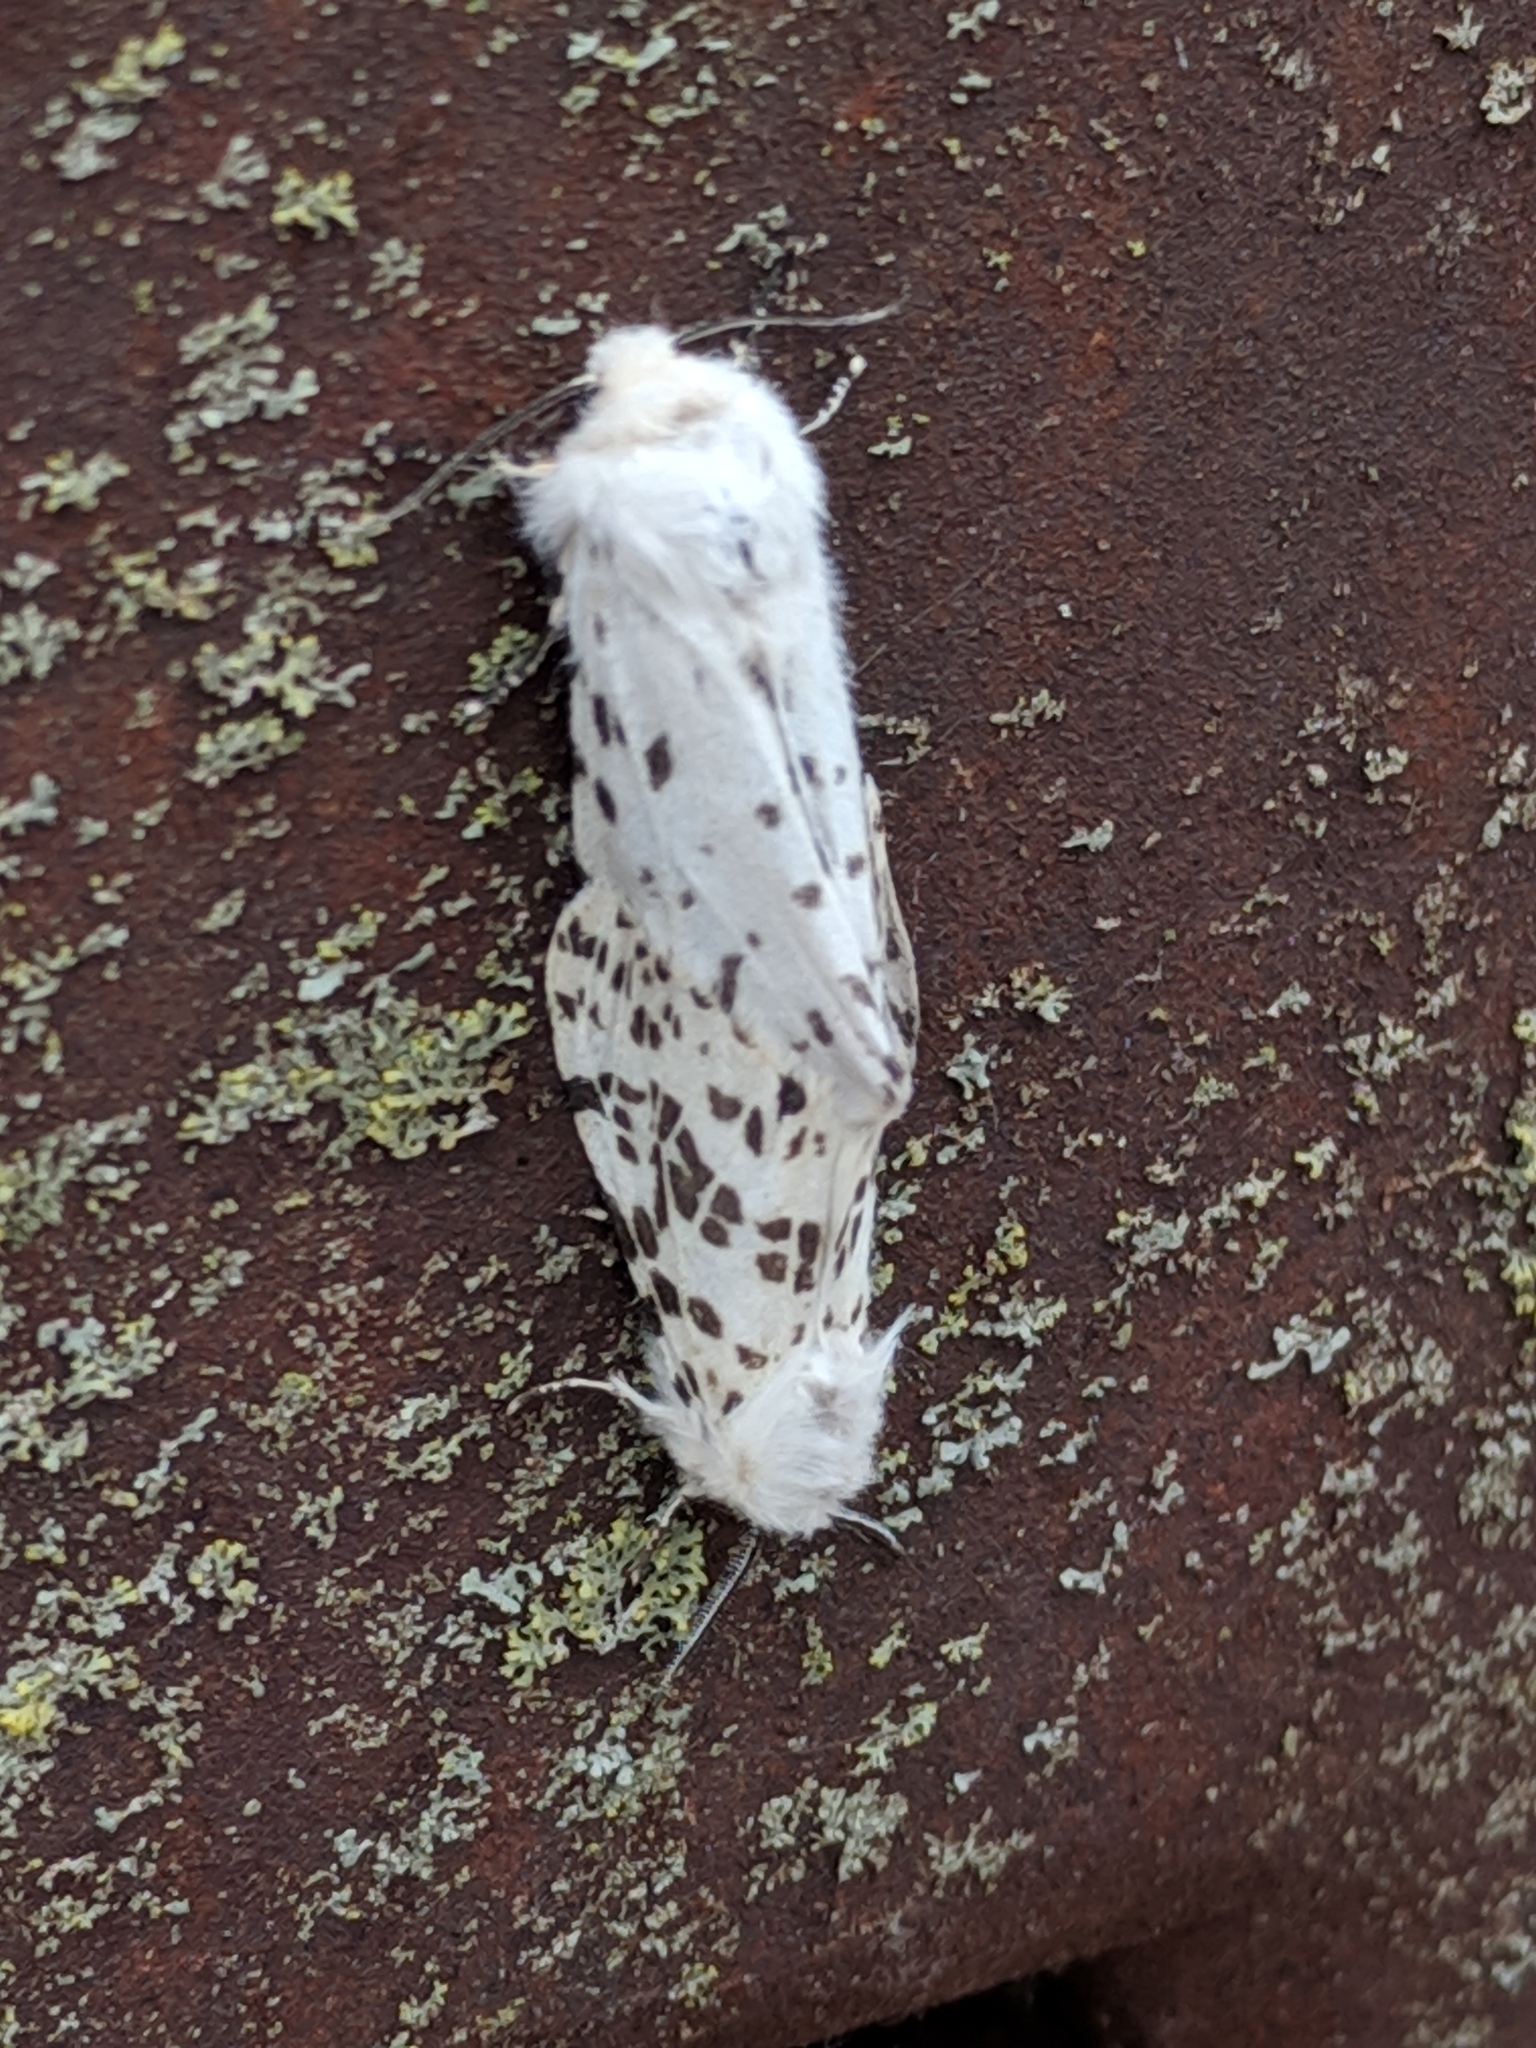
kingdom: Animalia
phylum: Arthropoda
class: Insecta
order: Lepidoptera
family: Erebidae
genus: Hyphantria
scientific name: Hyphantria cunea
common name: American white moth
